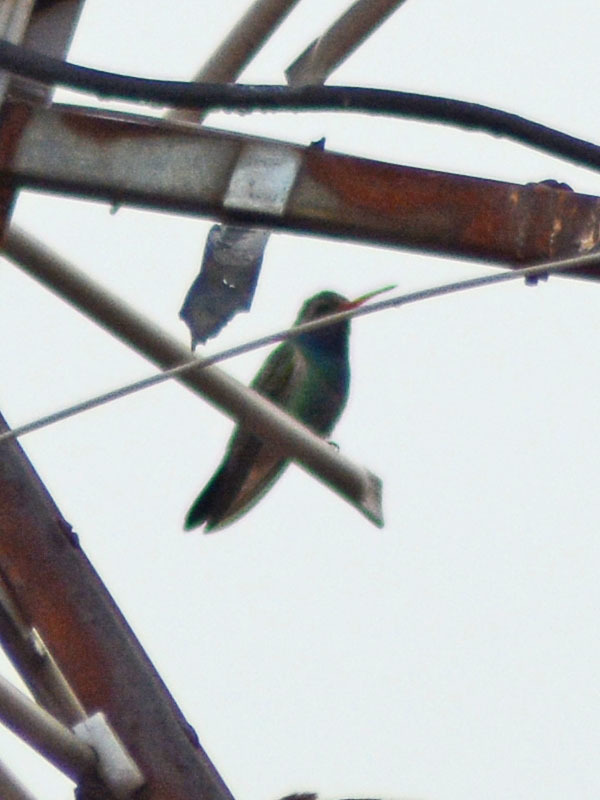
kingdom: Animalia
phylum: Chordata
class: Aves
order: Apodiformes
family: Trochilidae
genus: Cynanthus
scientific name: Cynanthus latirostris
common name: Broad-billed hummingbird
